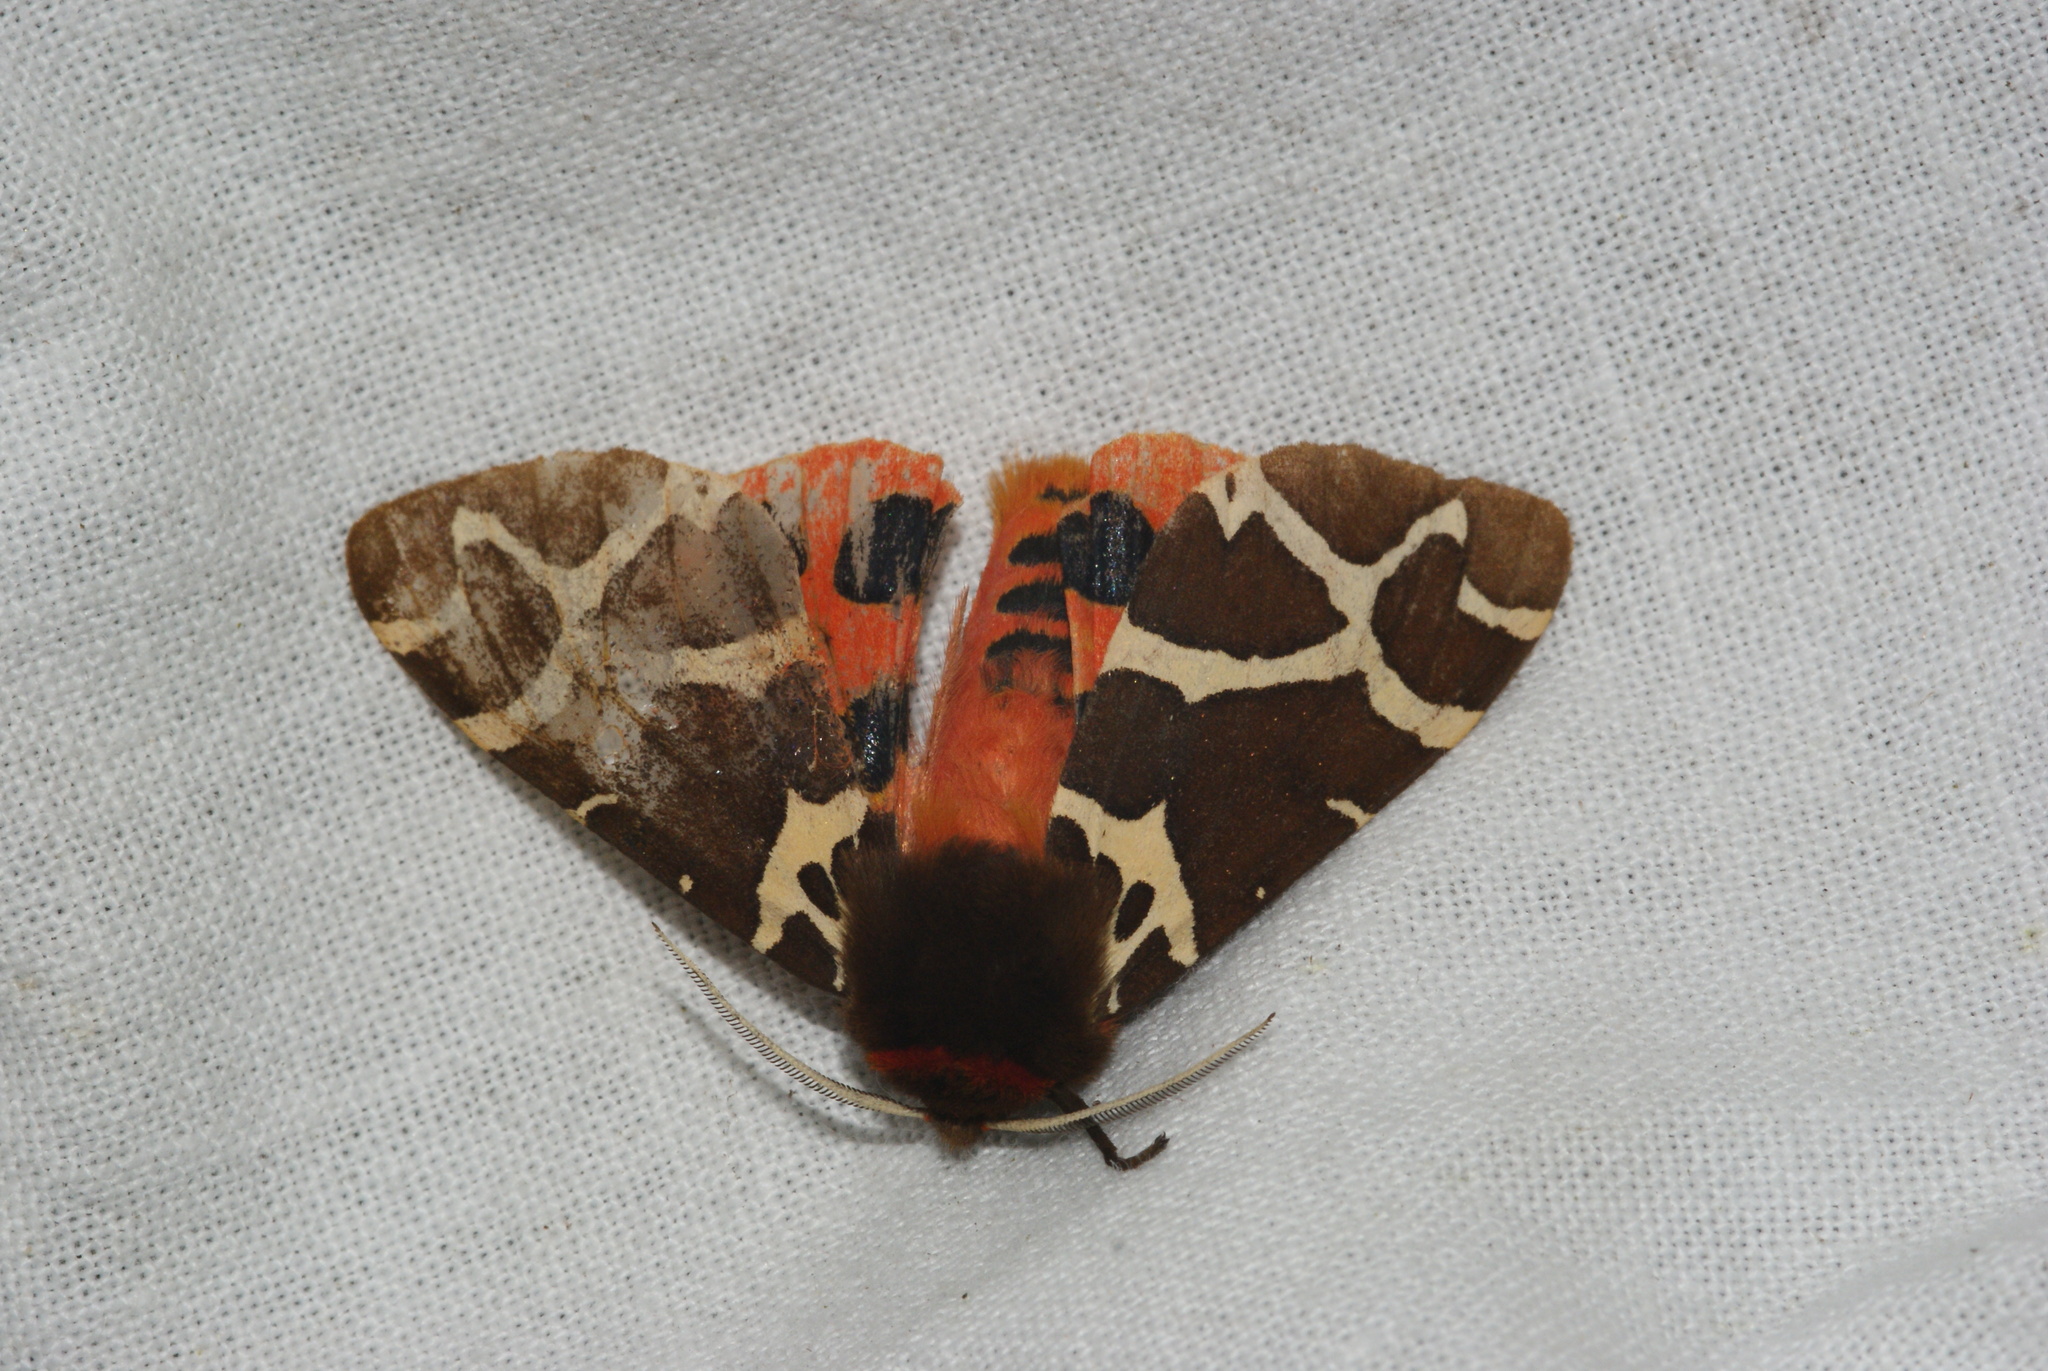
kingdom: Animalia
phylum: Arthropoda
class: Insecta
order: Lepidoptera
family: Erebidae
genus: Arctia
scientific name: Arctia caja
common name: Garden tiger
